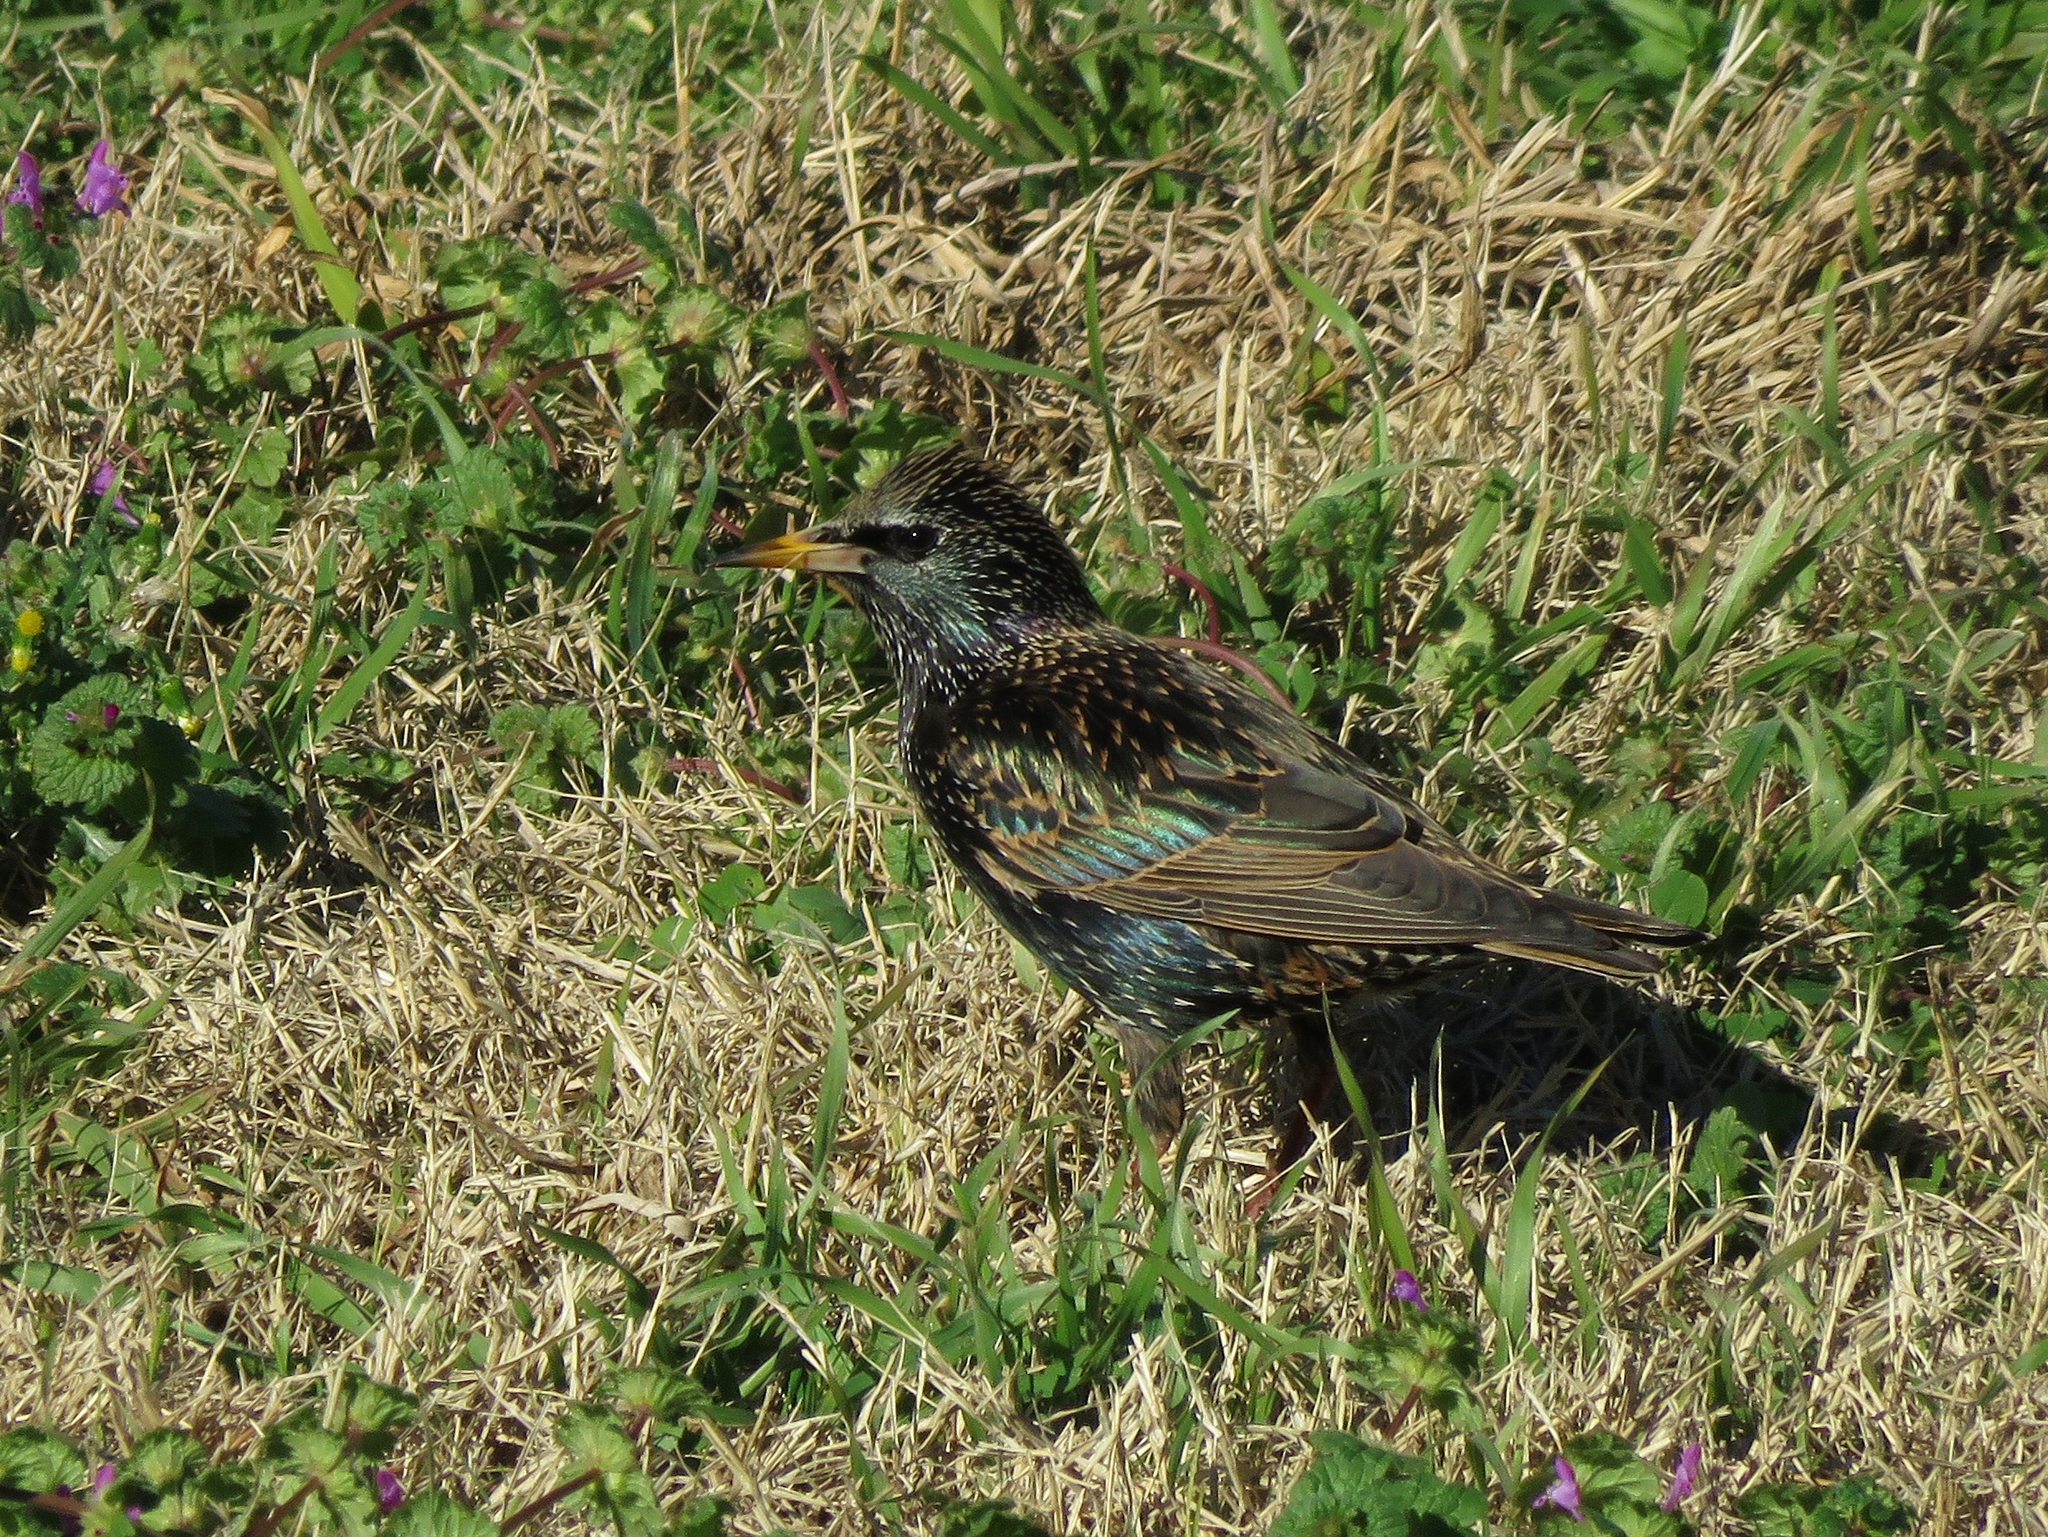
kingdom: Animalia
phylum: Chordata
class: Aves
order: Passeriformes
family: Sturnidae
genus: Sturnus
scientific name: Sturnus vulgaris
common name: Common starling
